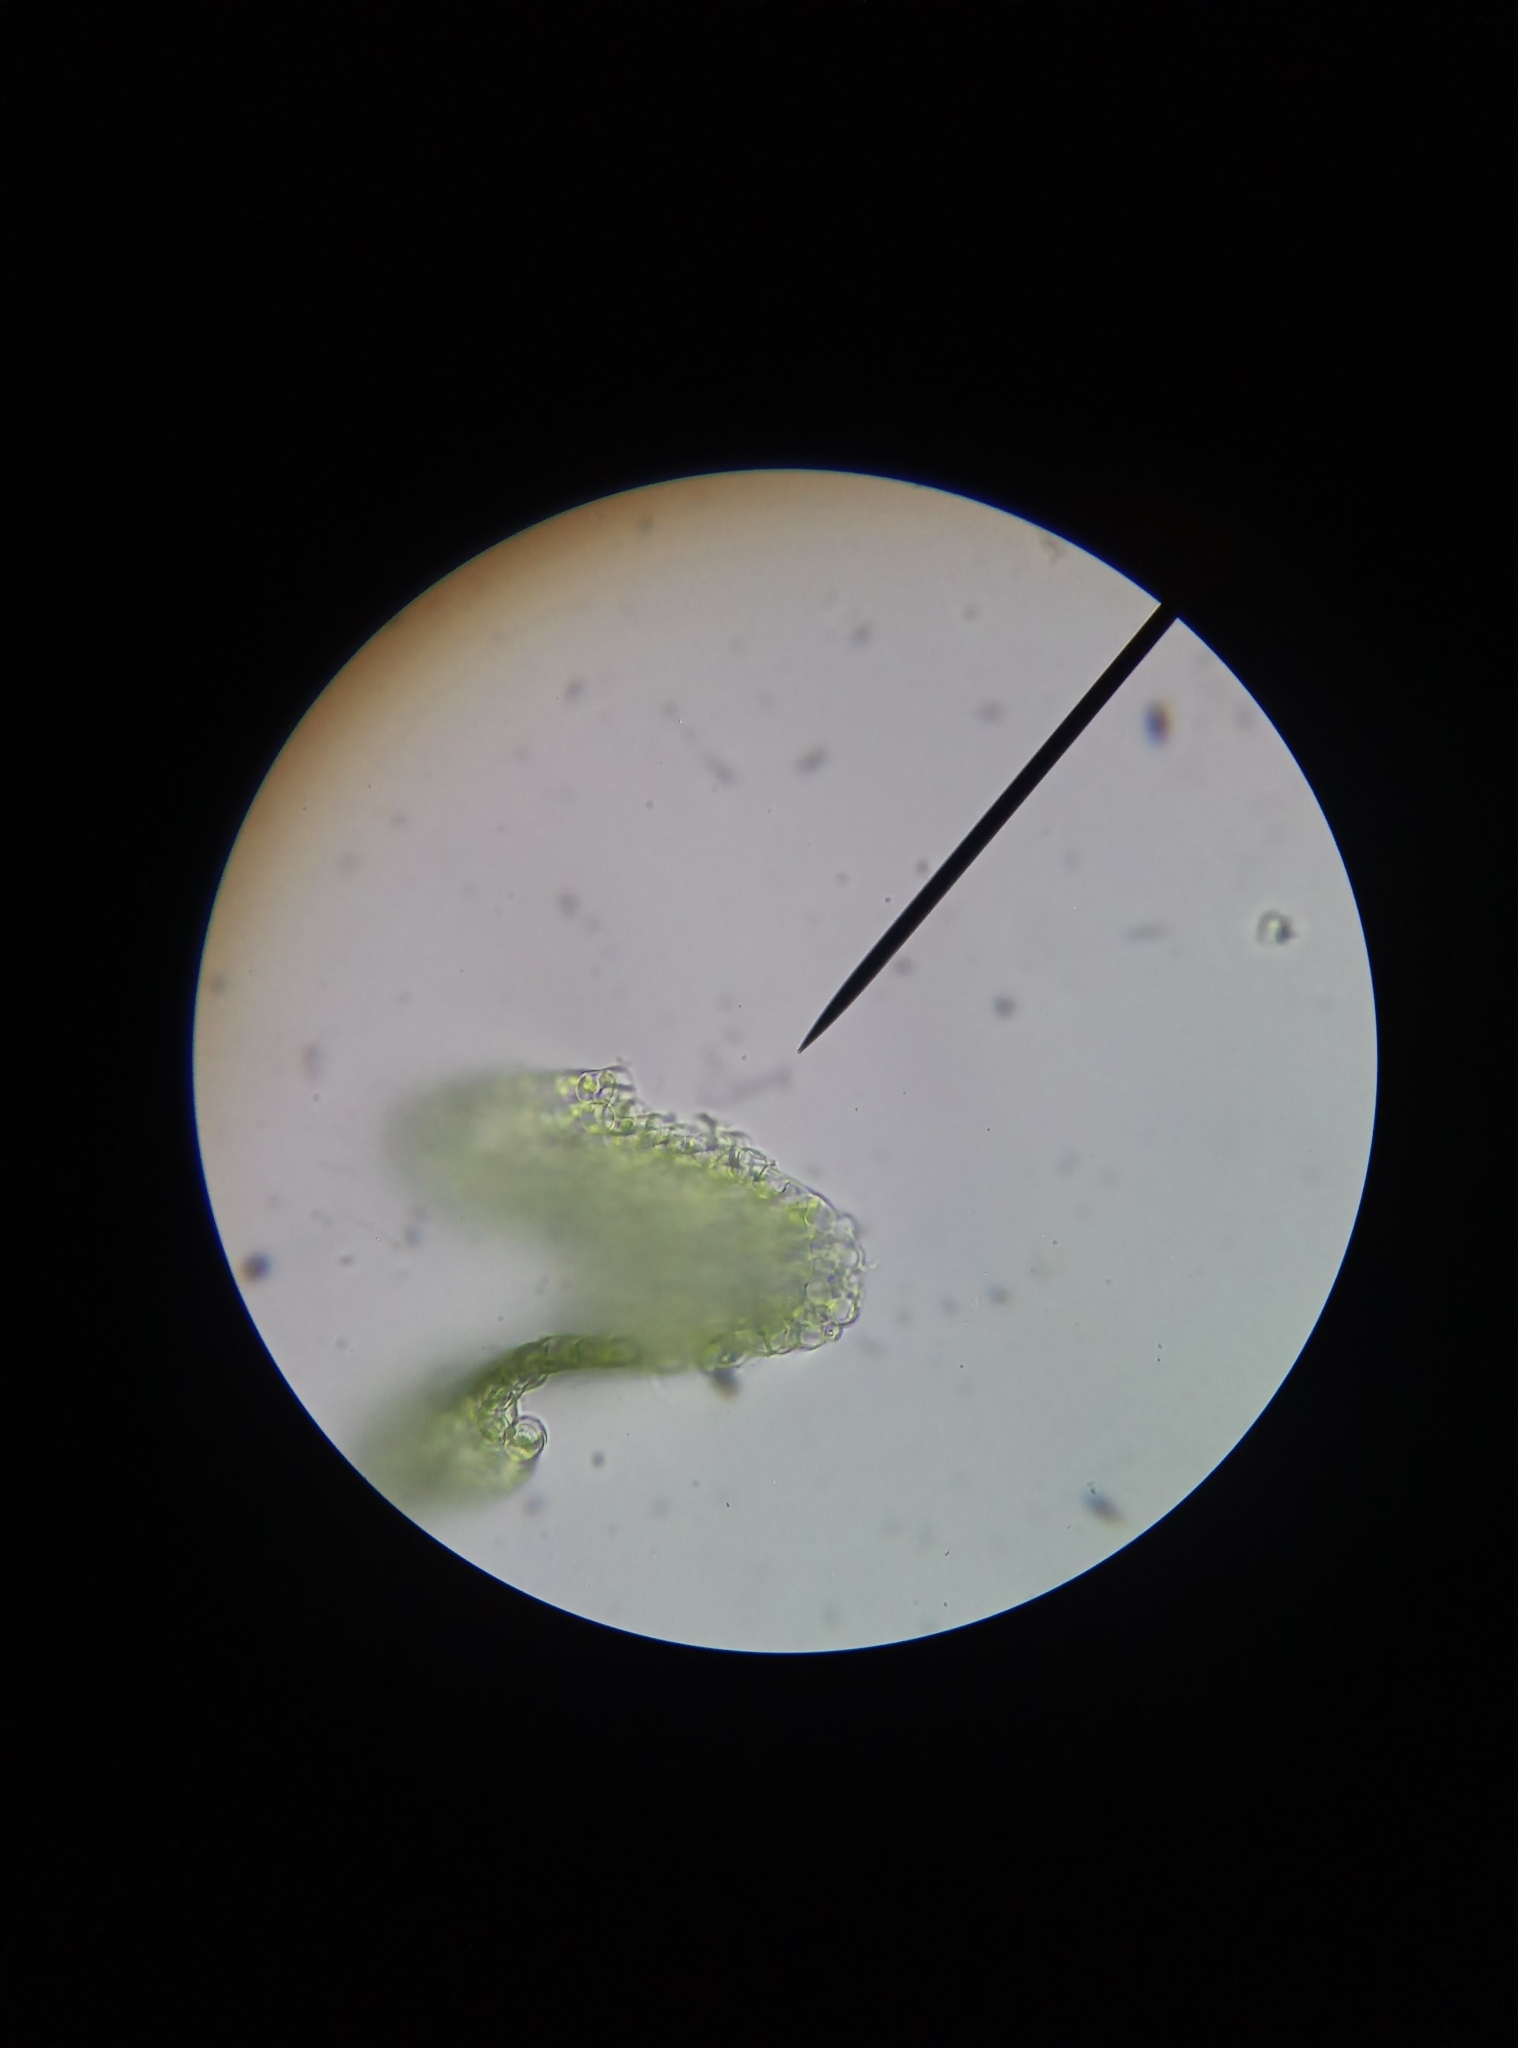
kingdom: Plantae
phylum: Bryophyta
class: Bryopsida
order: Dicranales
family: Ditrichaceae
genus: Ceratodon
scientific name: Ceratodon purpureus
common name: Redshank
